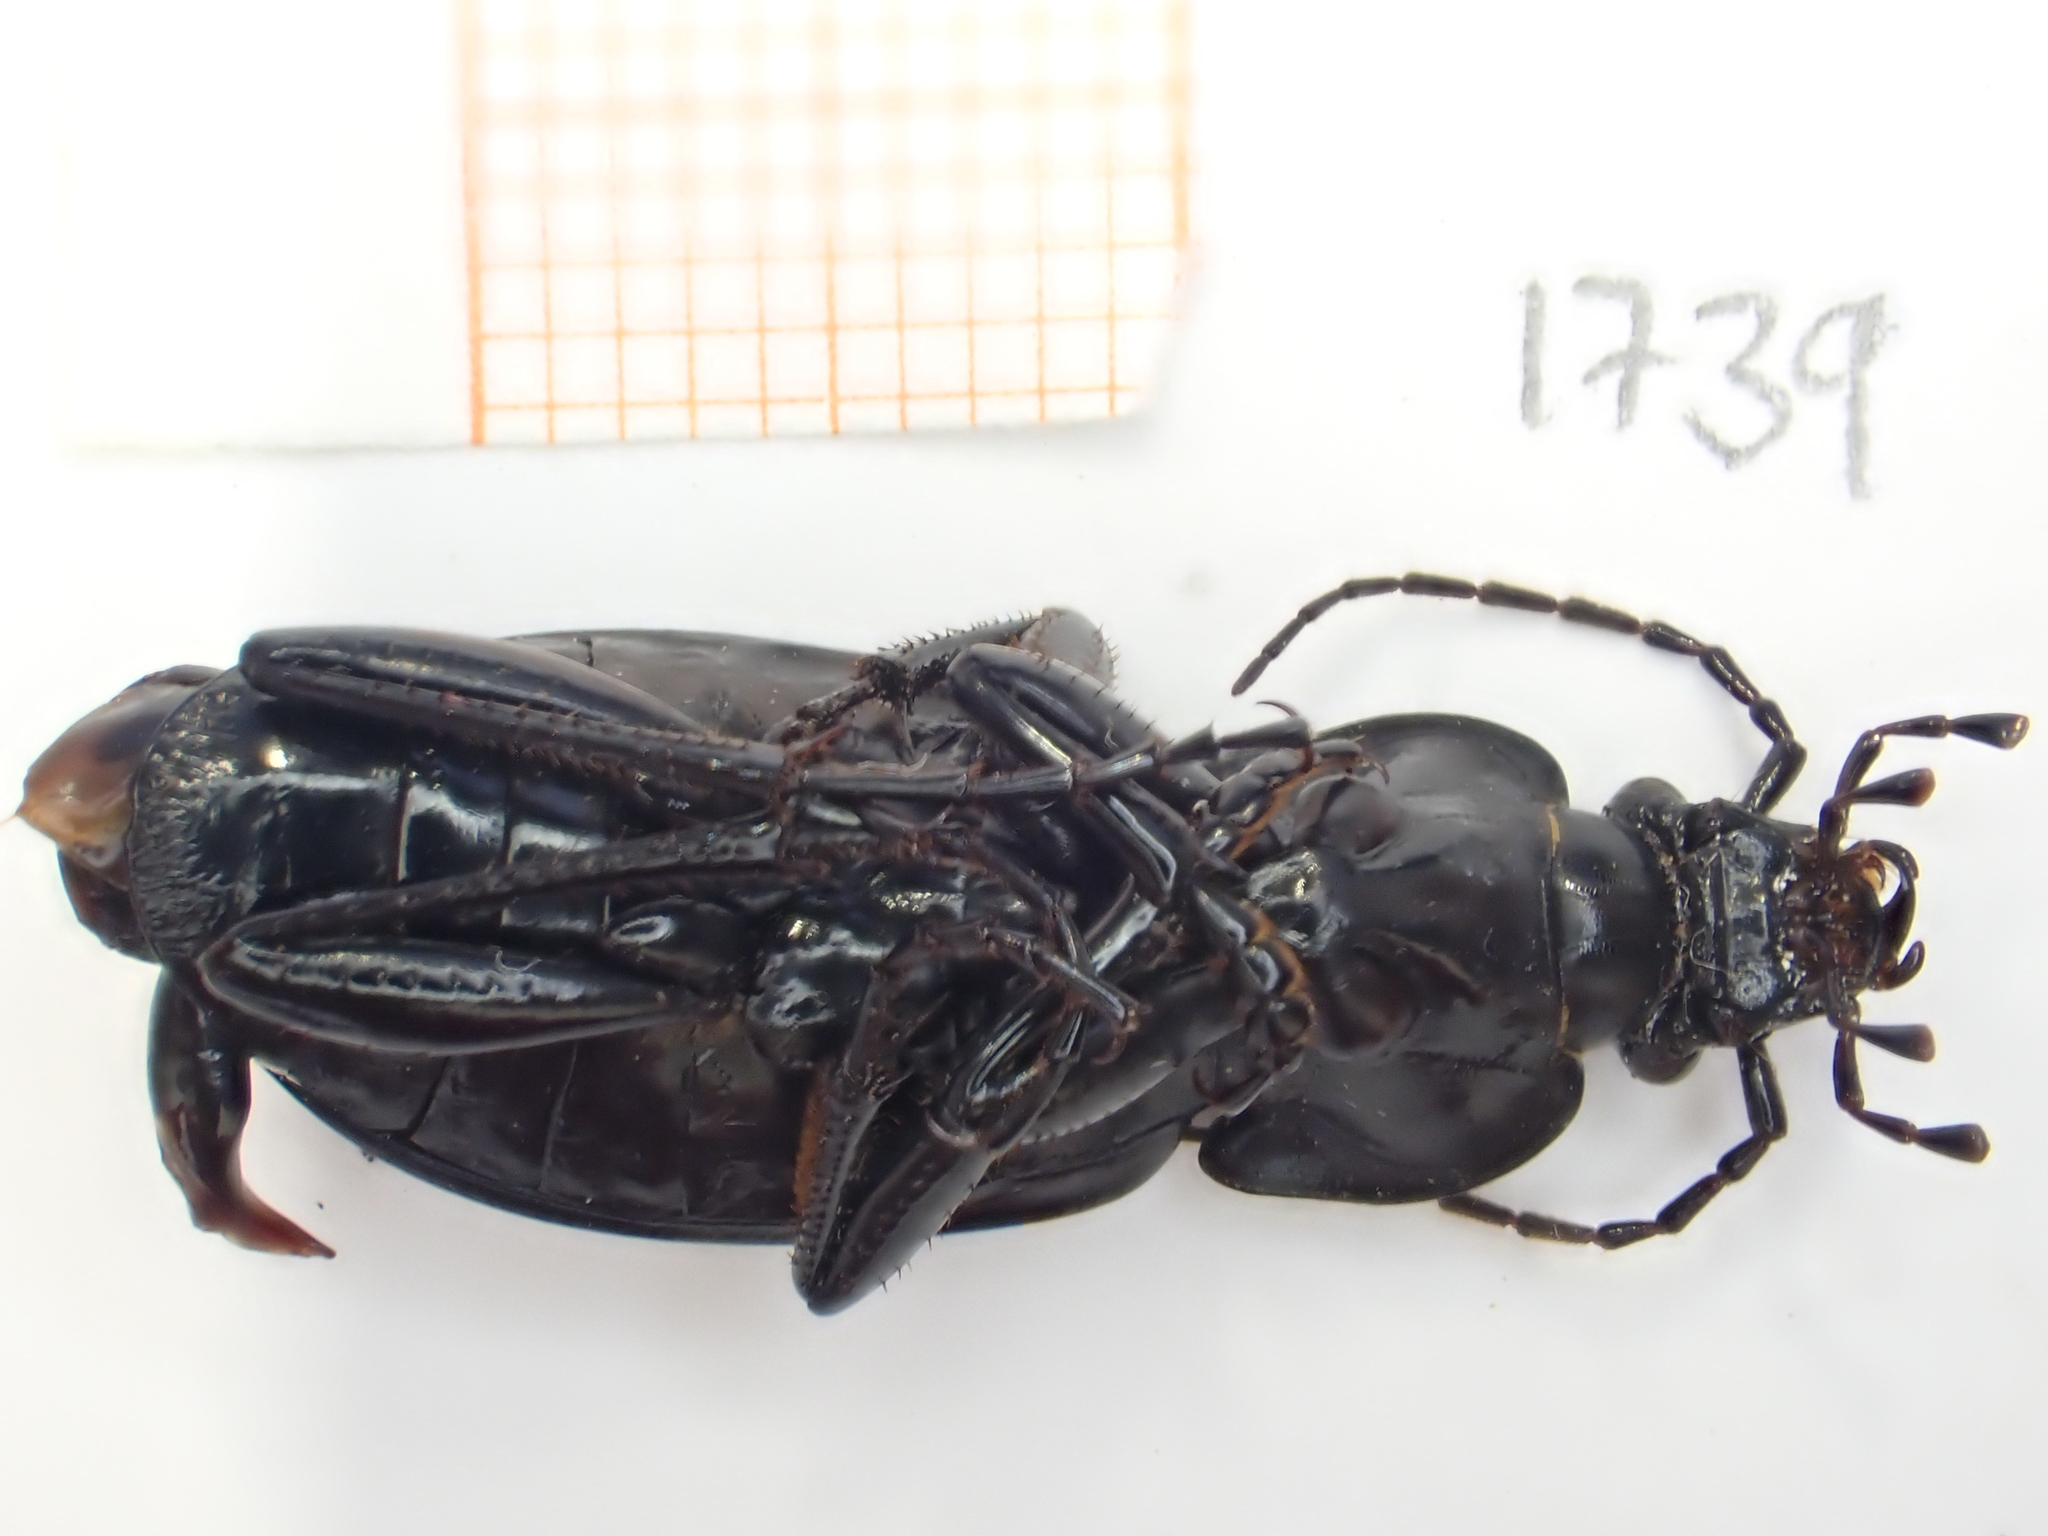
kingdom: Animalia
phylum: Arthropoda
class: Insecta
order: Coleoptera
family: Carabidae
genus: Carabus
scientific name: Carabus nemoralis
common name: European ground beetle
